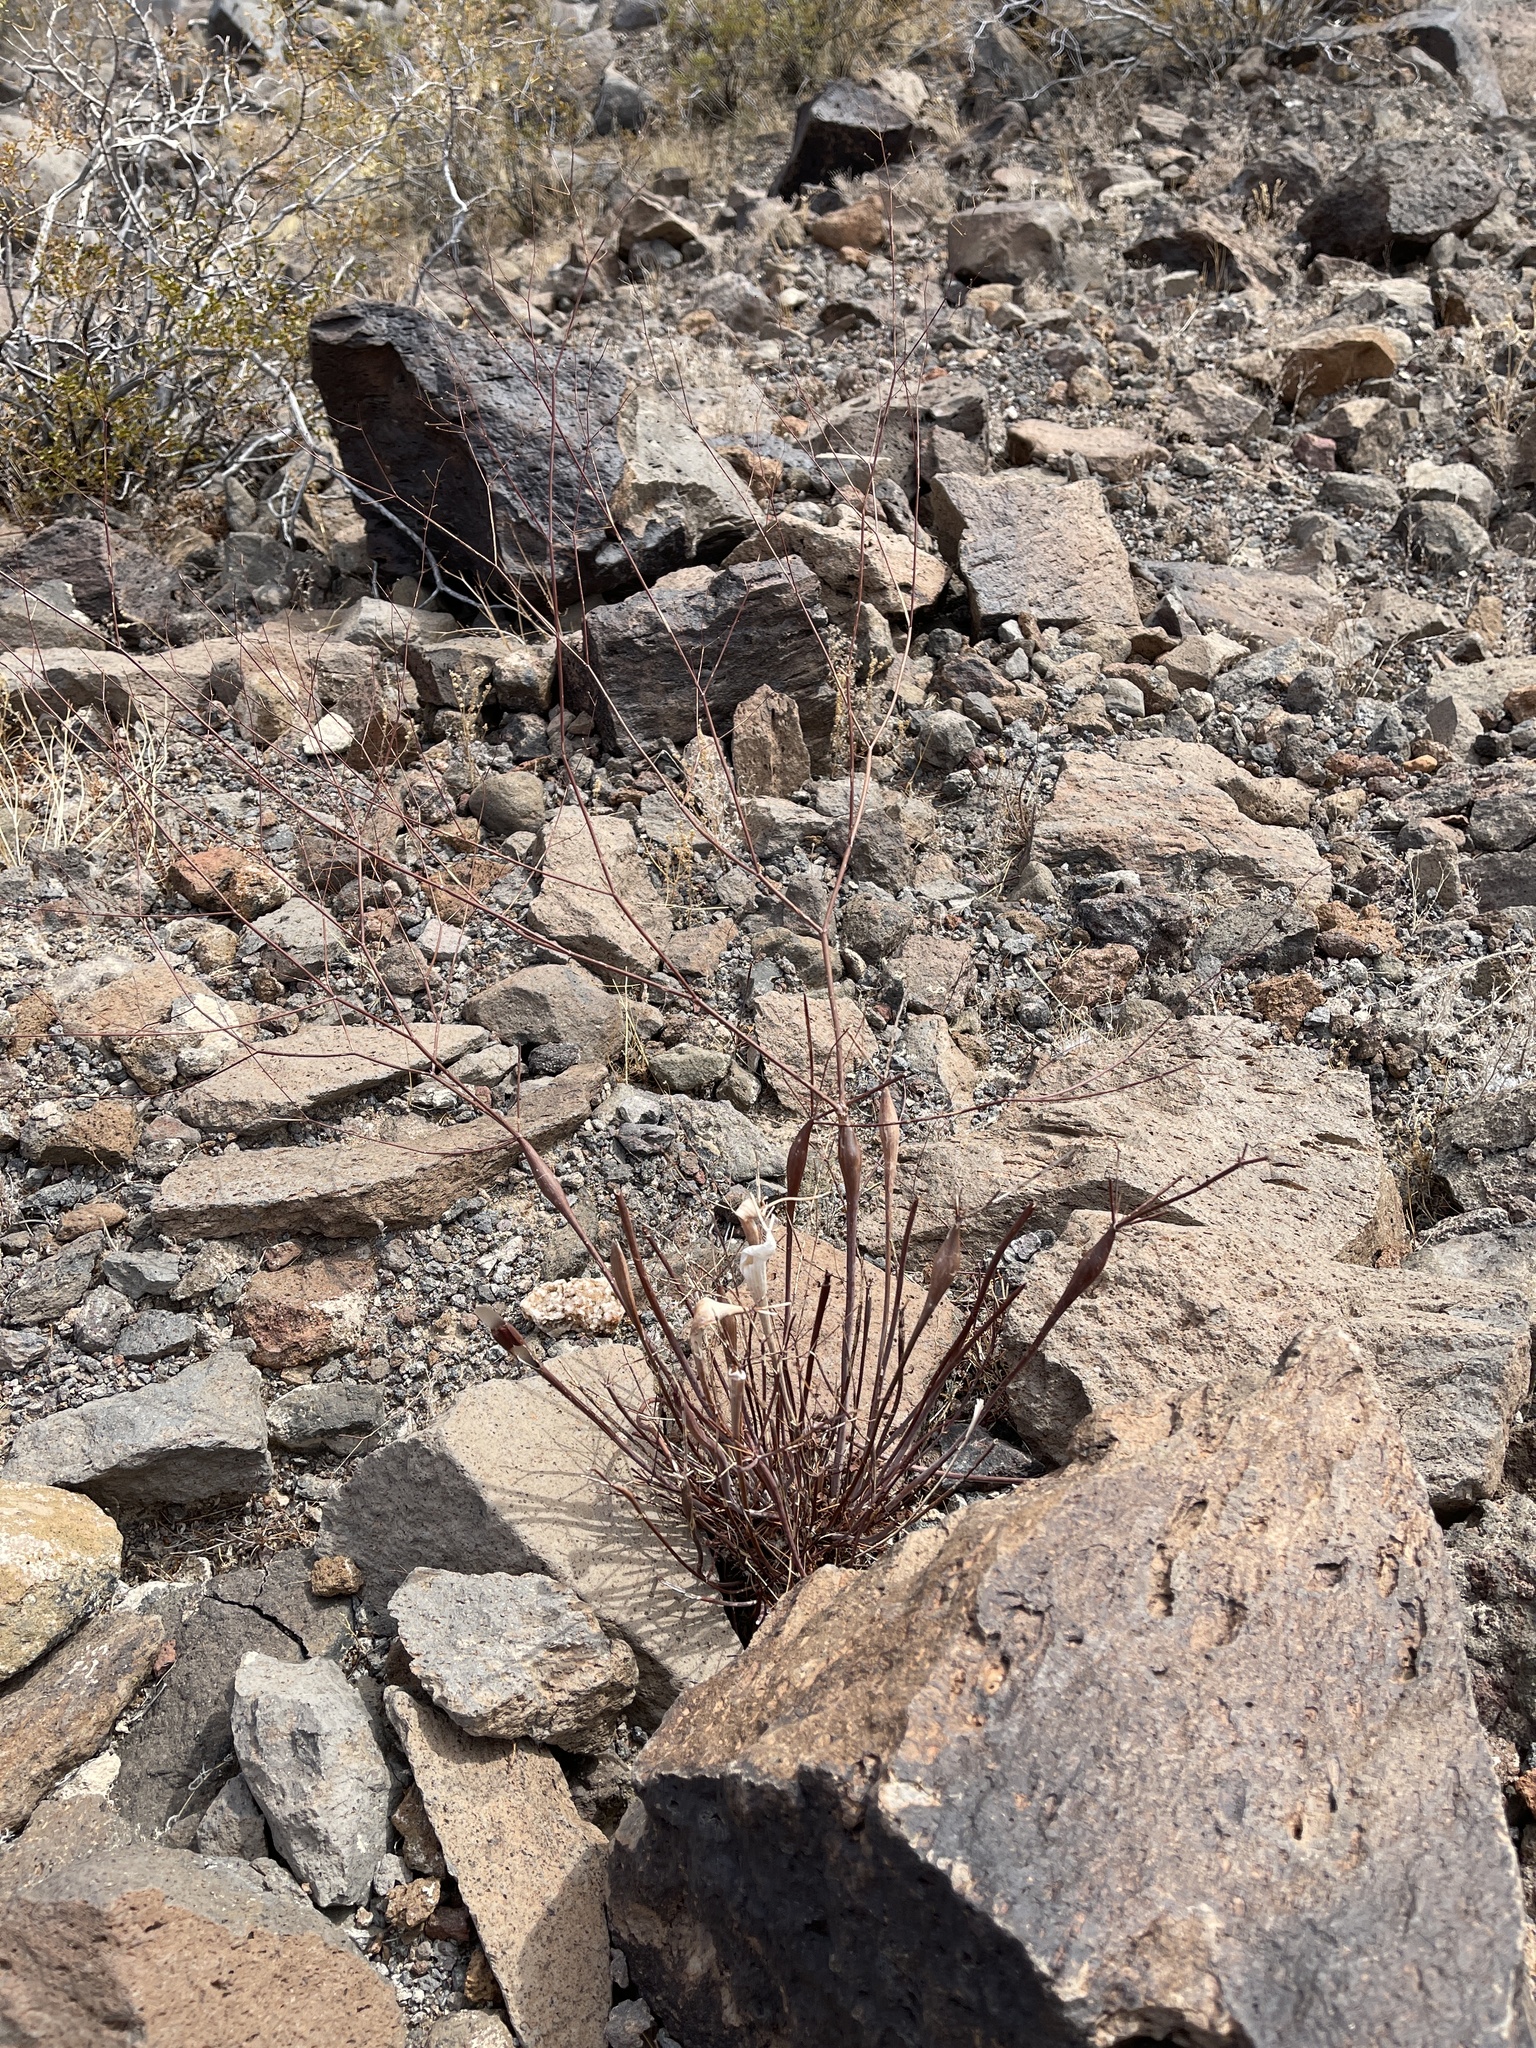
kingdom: Plantae
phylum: Tracheophyta
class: Magnoliopsida
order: Caryophyllales
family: Polygonaceae
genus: Eriogonum
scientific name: Eriogonum inflatum
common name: Desert trumpet
